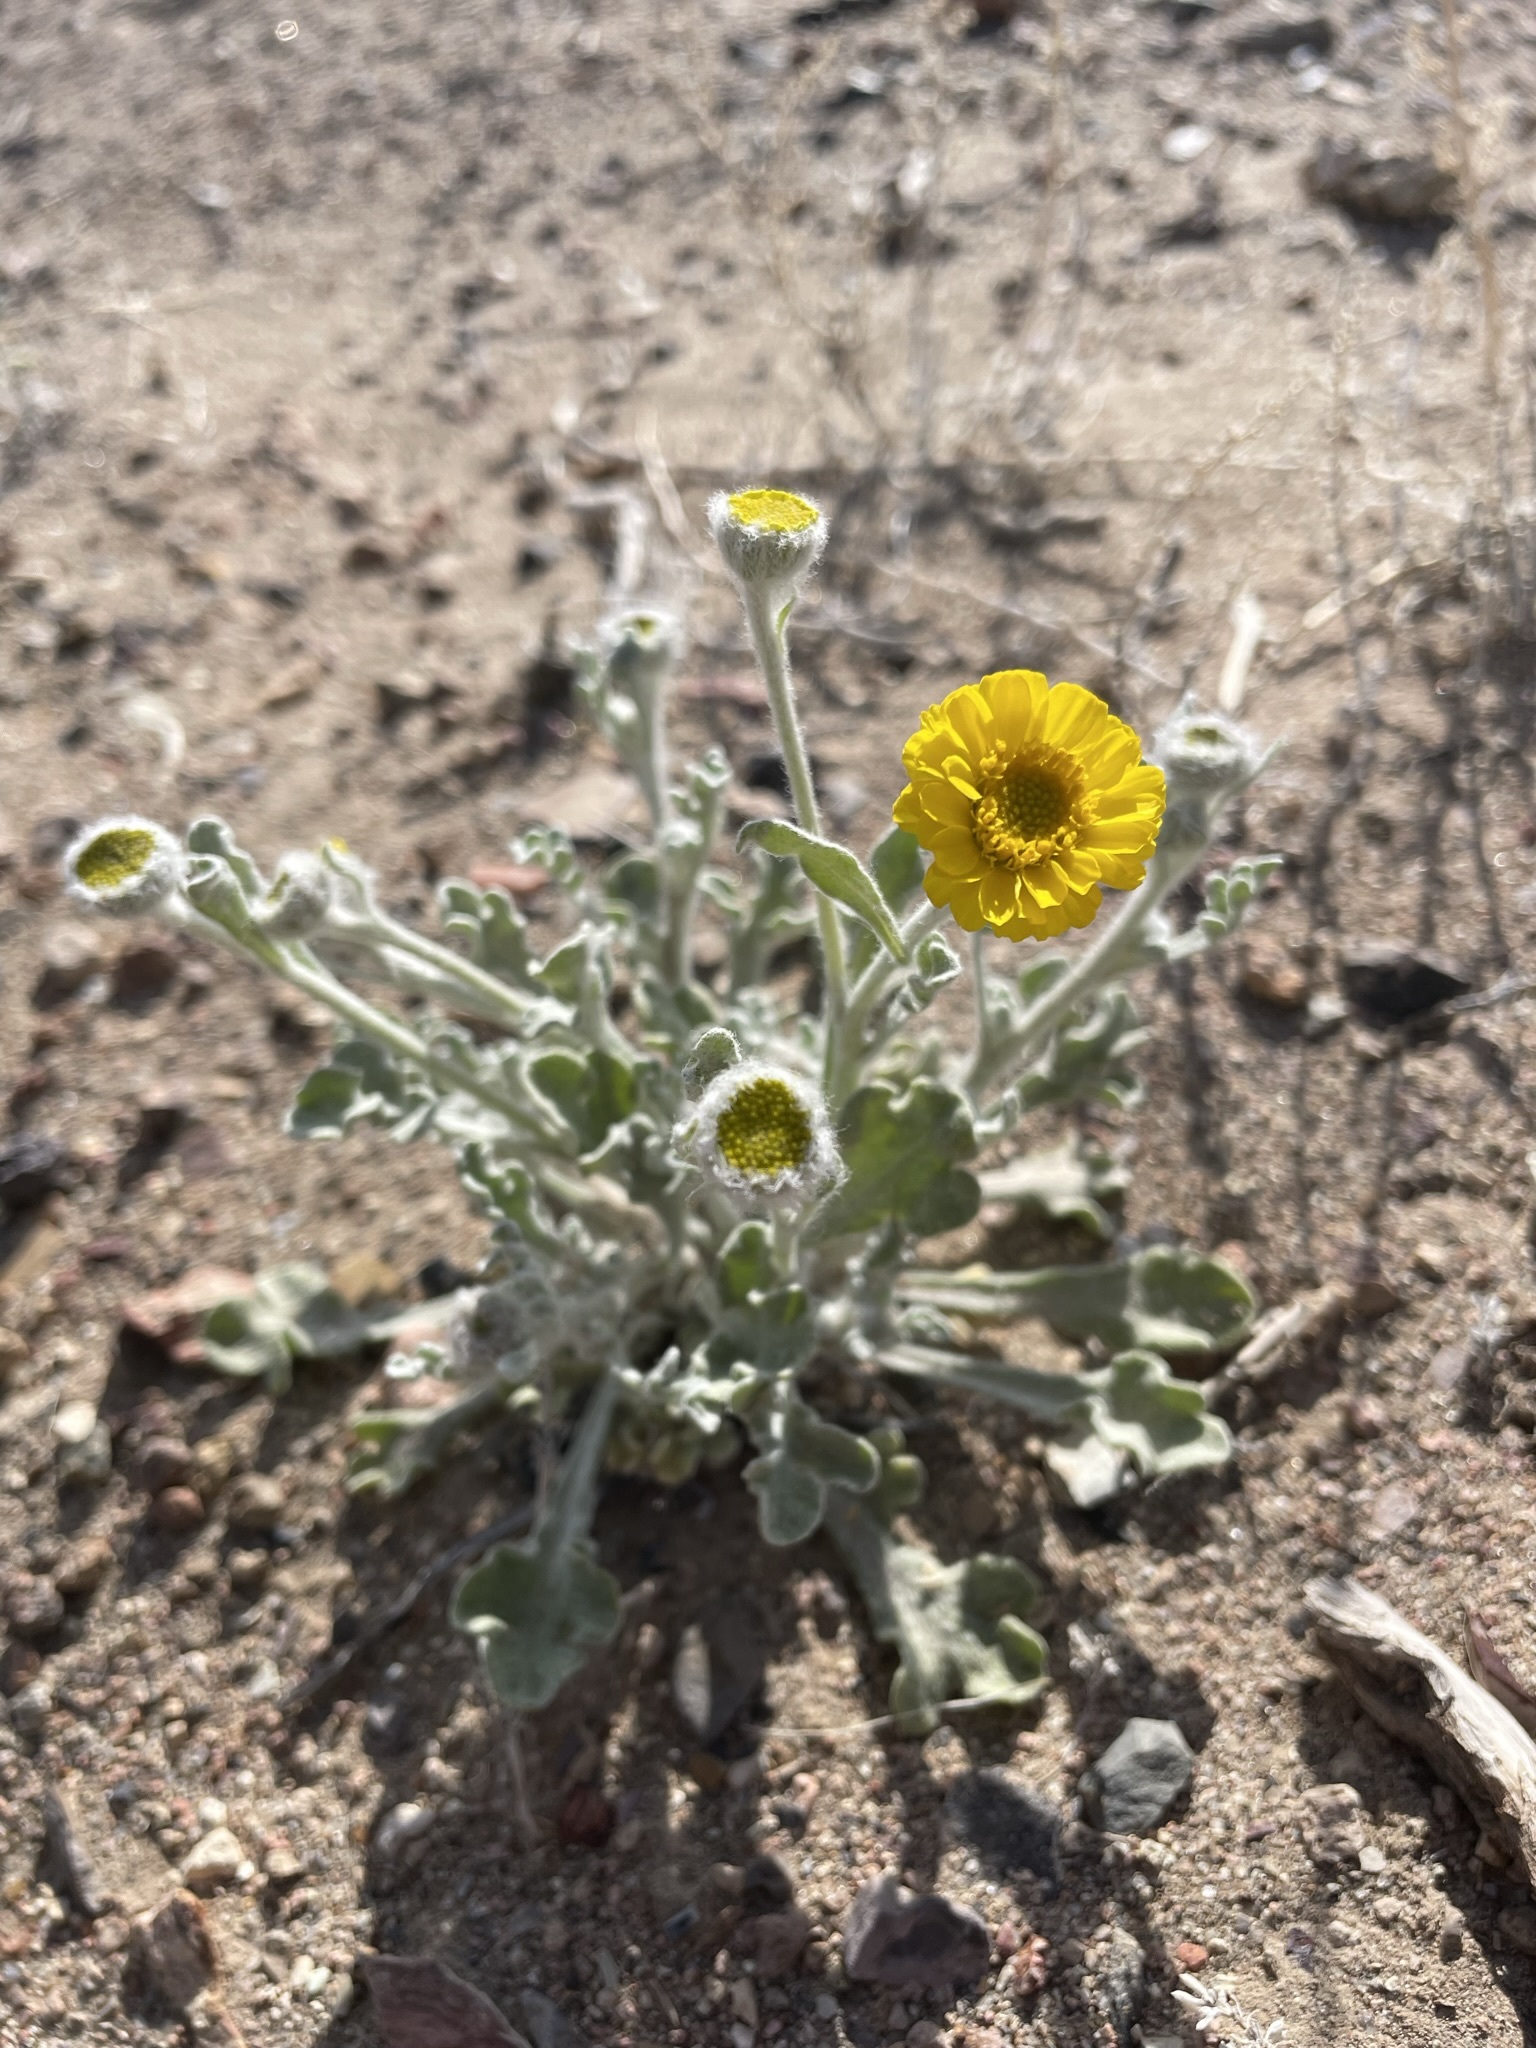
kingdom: Plantae
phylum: Tracheophyta
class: Magnoliopsida
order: Asterales
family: Asteraceae
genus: Baileya
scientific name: Baileya pleniradiata
